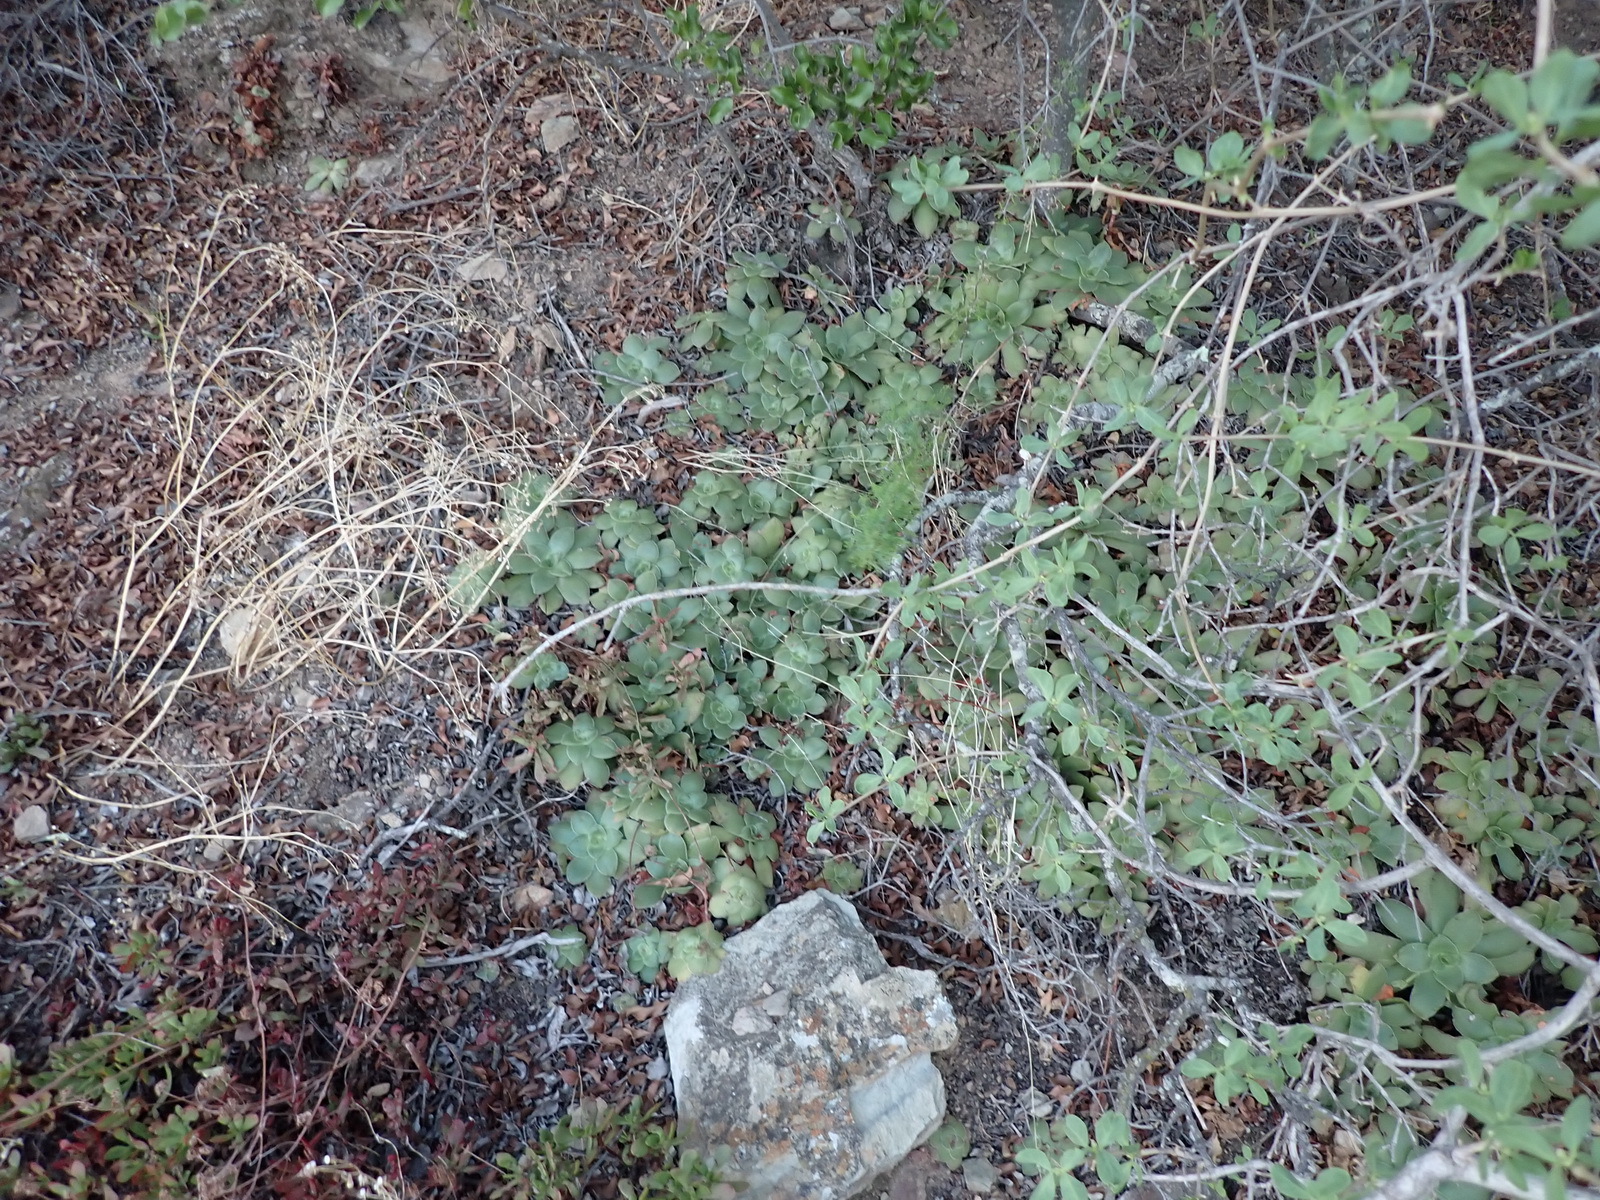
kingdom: Plantae
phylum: Tracheophyta
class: Magnoliopsida
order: Saxifragales
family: Crassulaceae
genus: Crassula
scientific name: Crassula orbicularis
